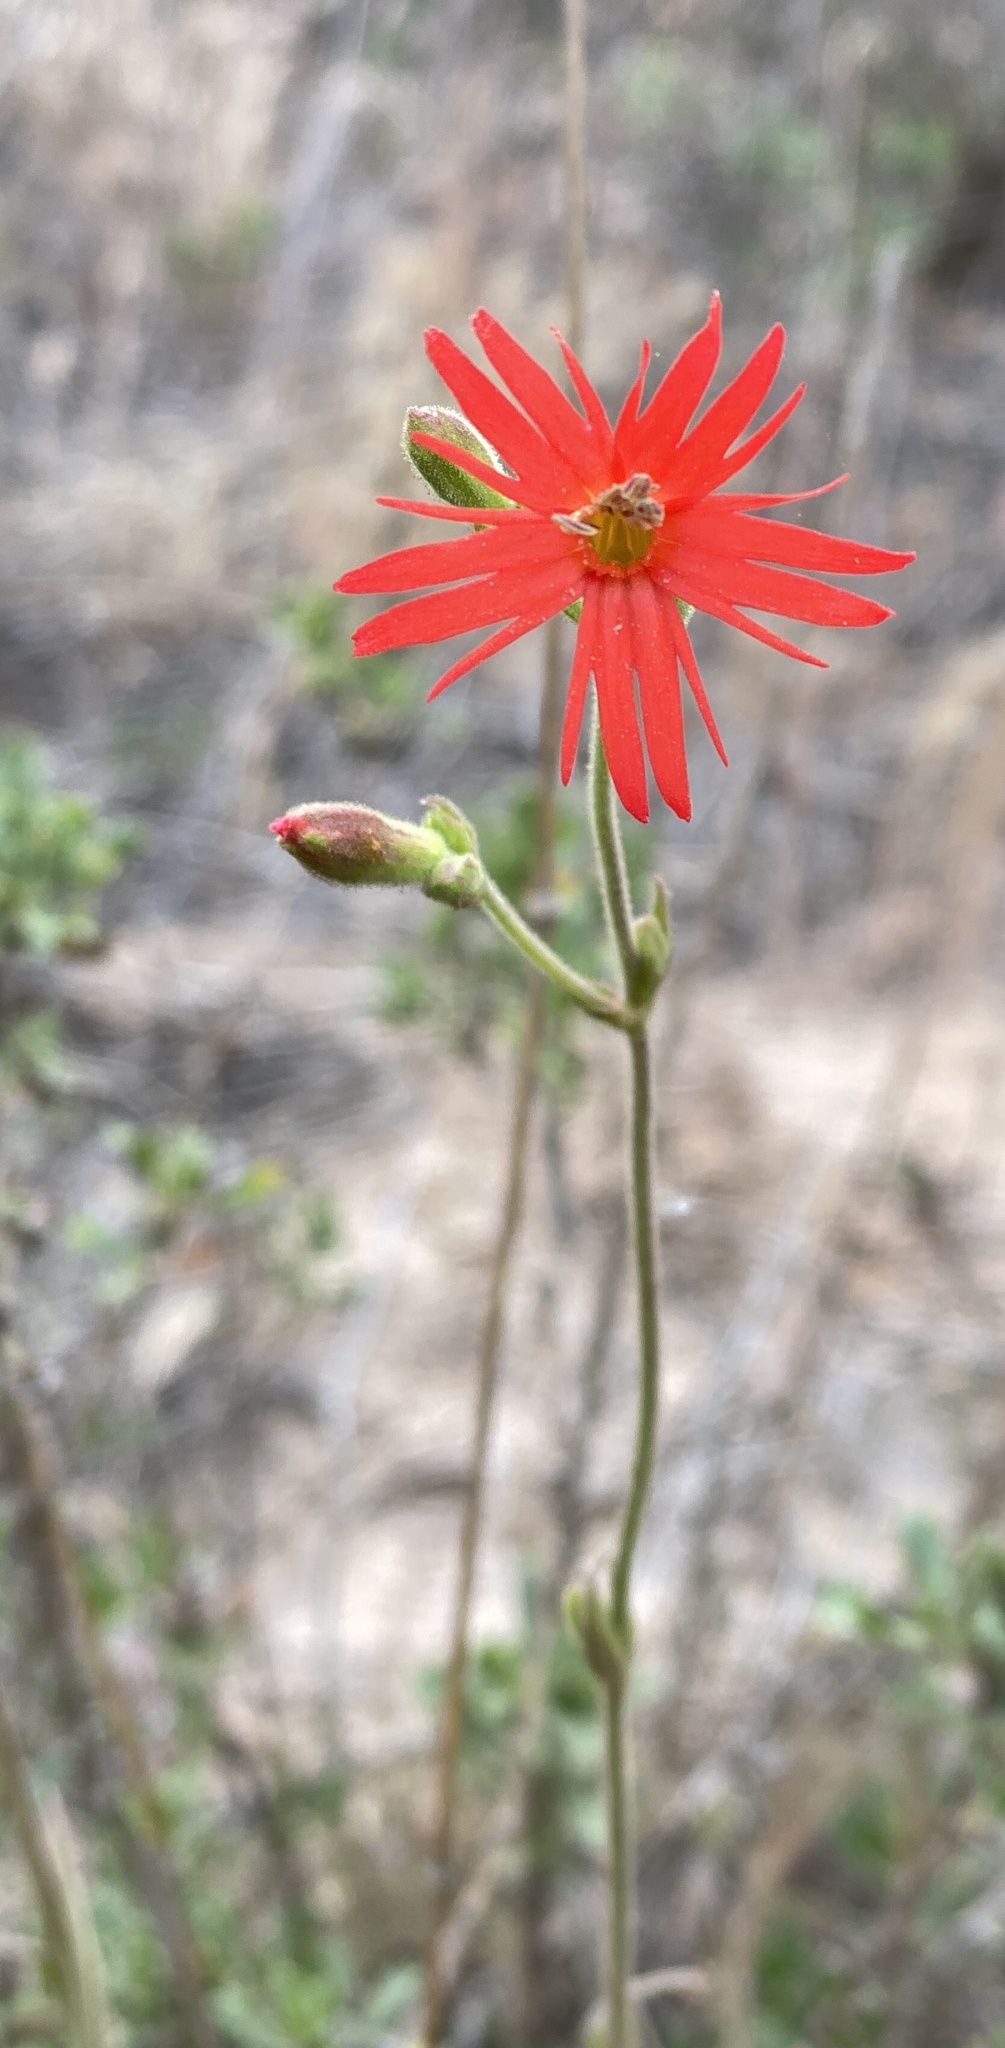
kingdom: Plantae
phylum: Tracheophyta
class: Magnoliopsida
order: Caryophyllales
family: Caryophyllaceae
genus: Silene
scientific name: Silene laciniata
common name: Indian-pink
